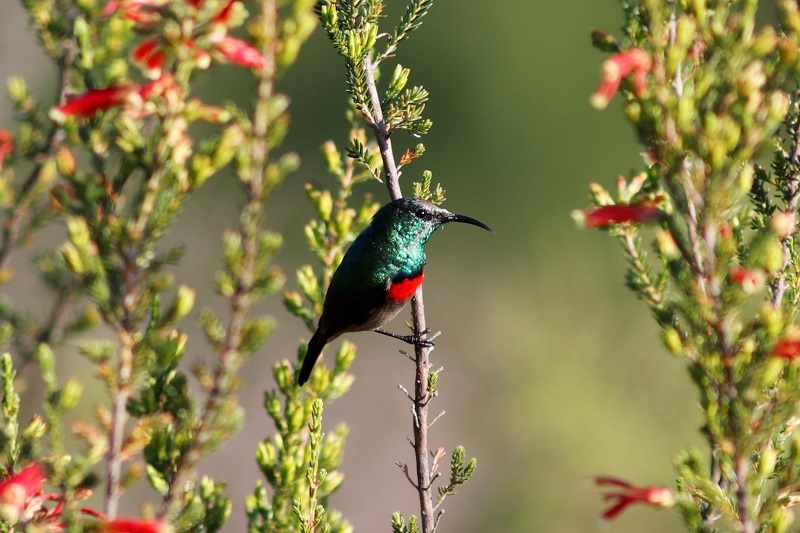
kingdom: Animalia
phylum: Chordata
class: Aves
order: Passeriformes
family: Nectariniidae
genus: Cinnyris
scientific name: Cinnyris afer
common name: Greater double-collared sunbird
